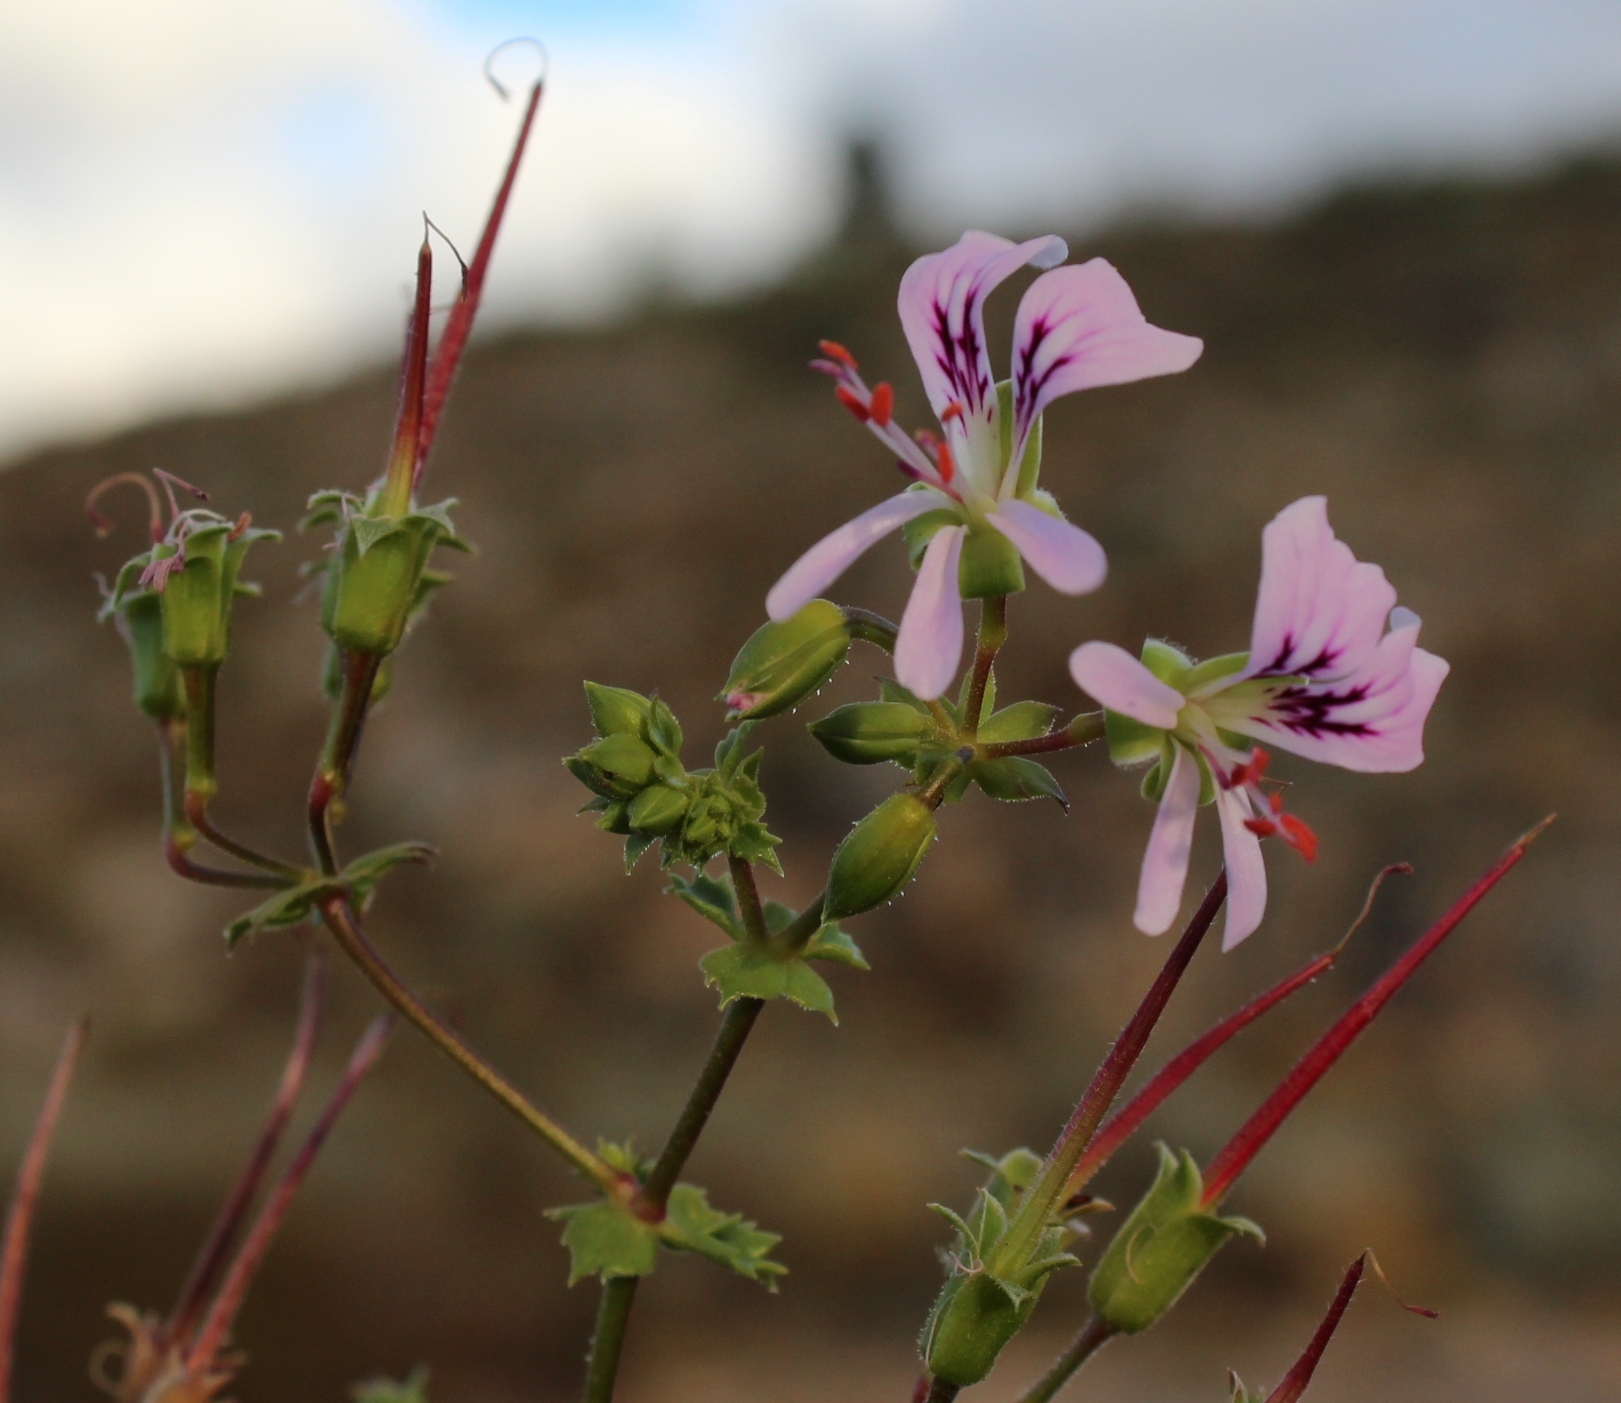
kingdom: Plantae
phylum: Tracheophyta
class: Magnoliopsida
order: Geraniales
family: Geraniaceae
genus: Pelargonium
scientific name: Pelargonium englerianum
